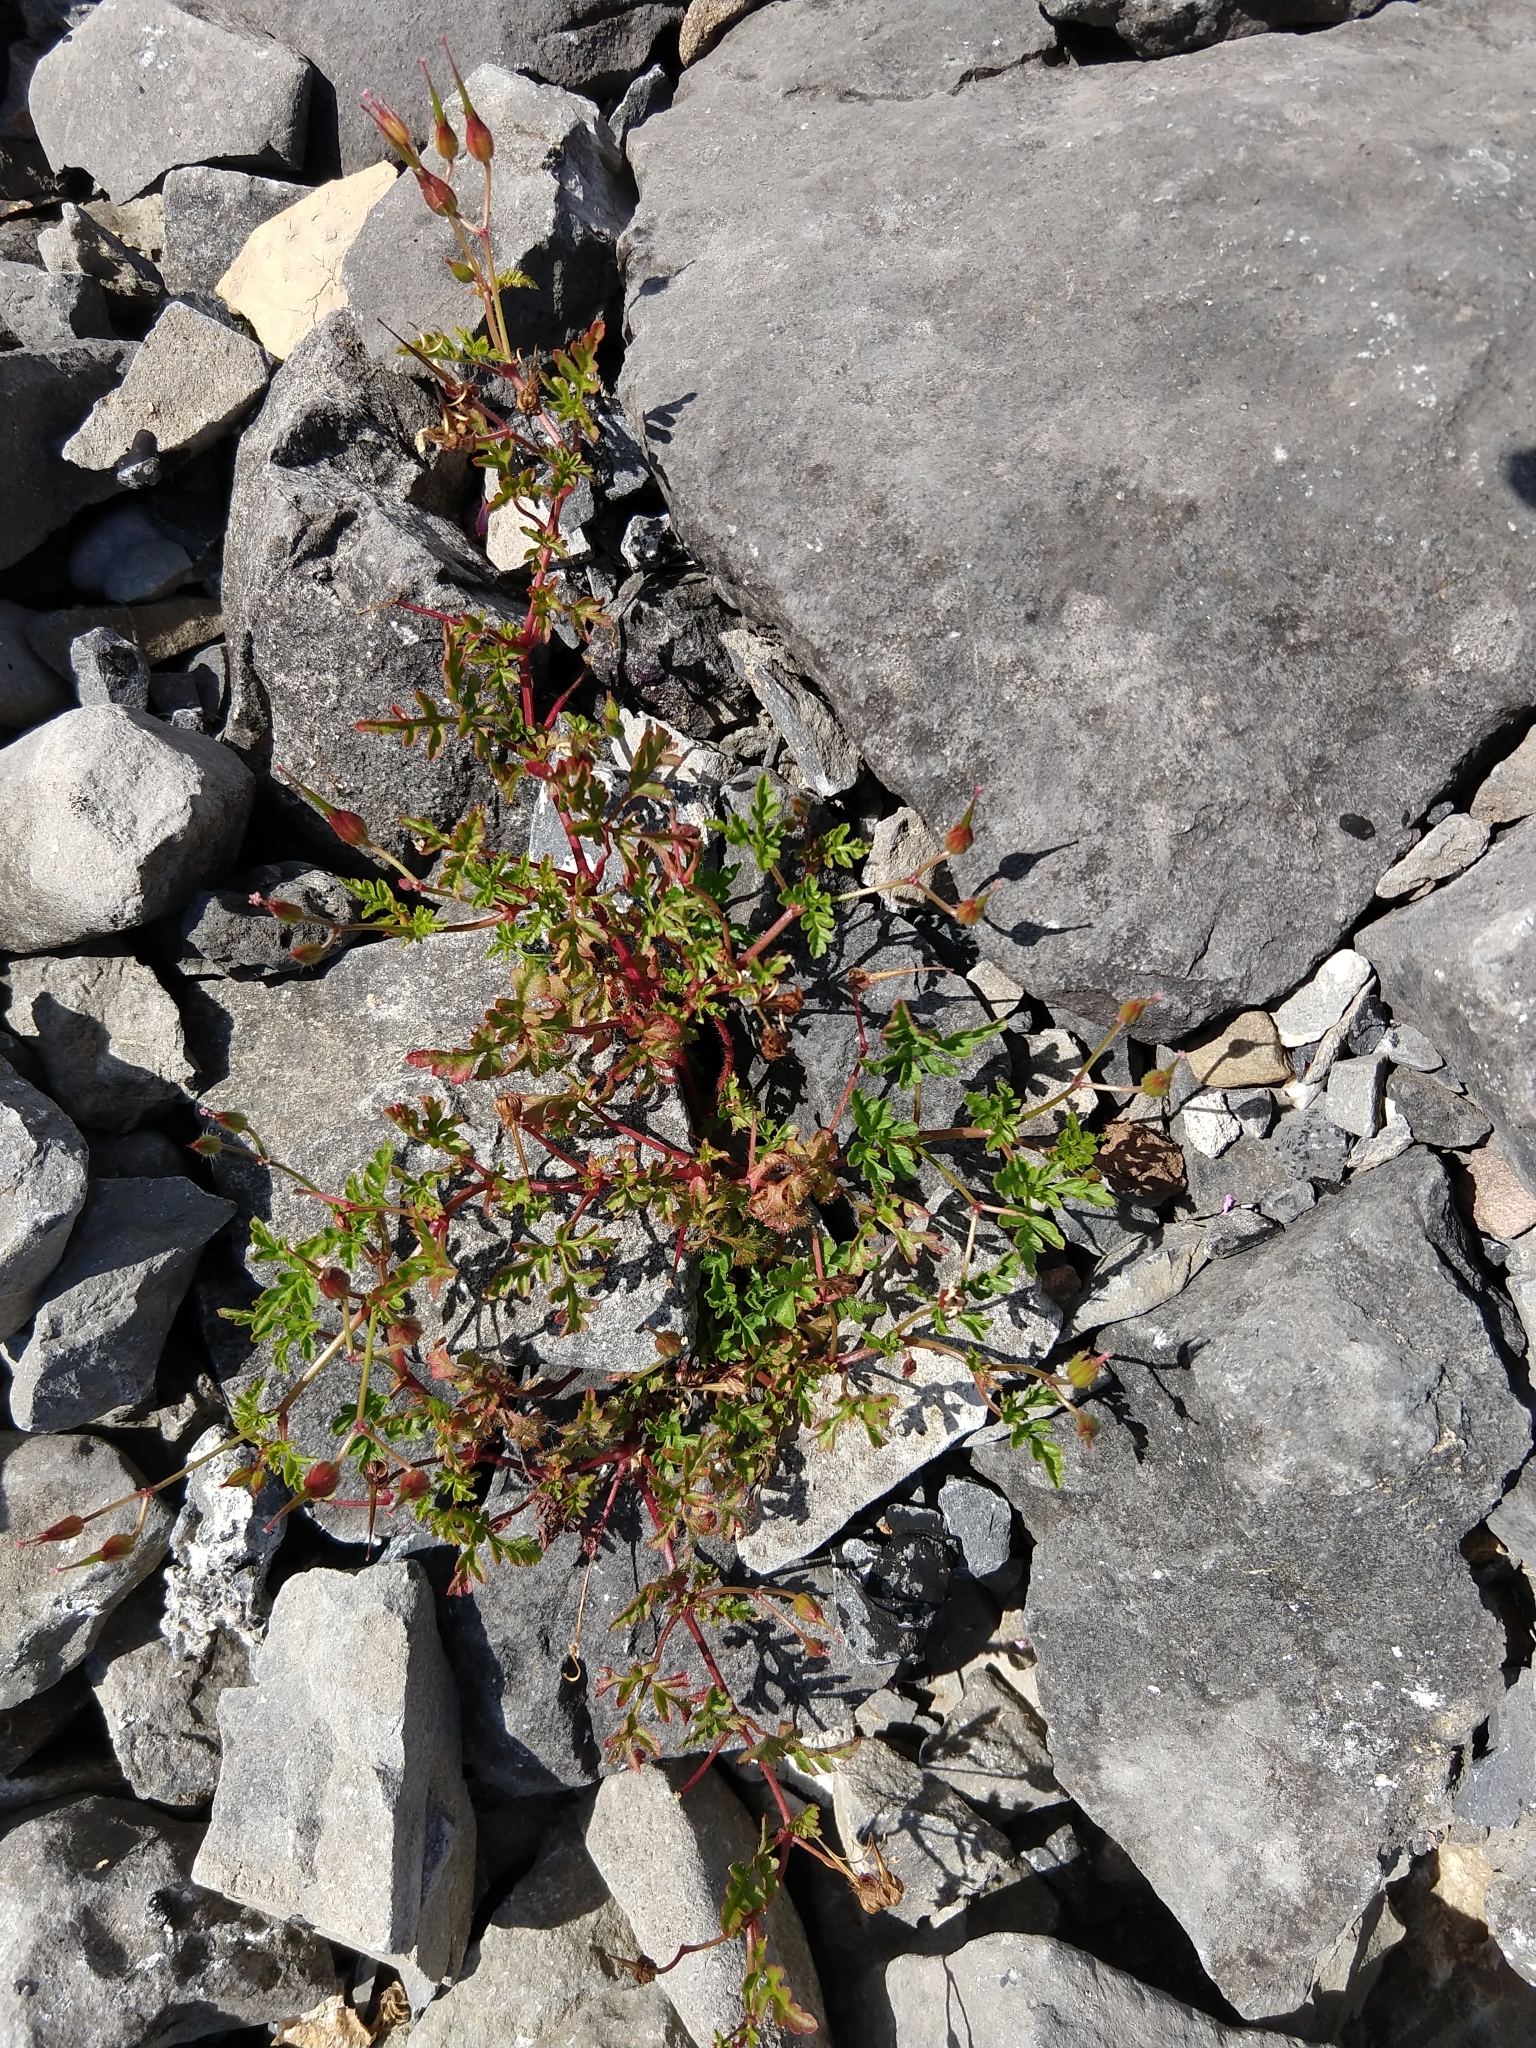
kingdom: Plantae
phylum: Tracheophyta
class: Magnoliopsida
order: Geraniales
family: Geraniaceae
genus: Geranium
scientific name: Geranium robertianum
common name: Herb-robert
